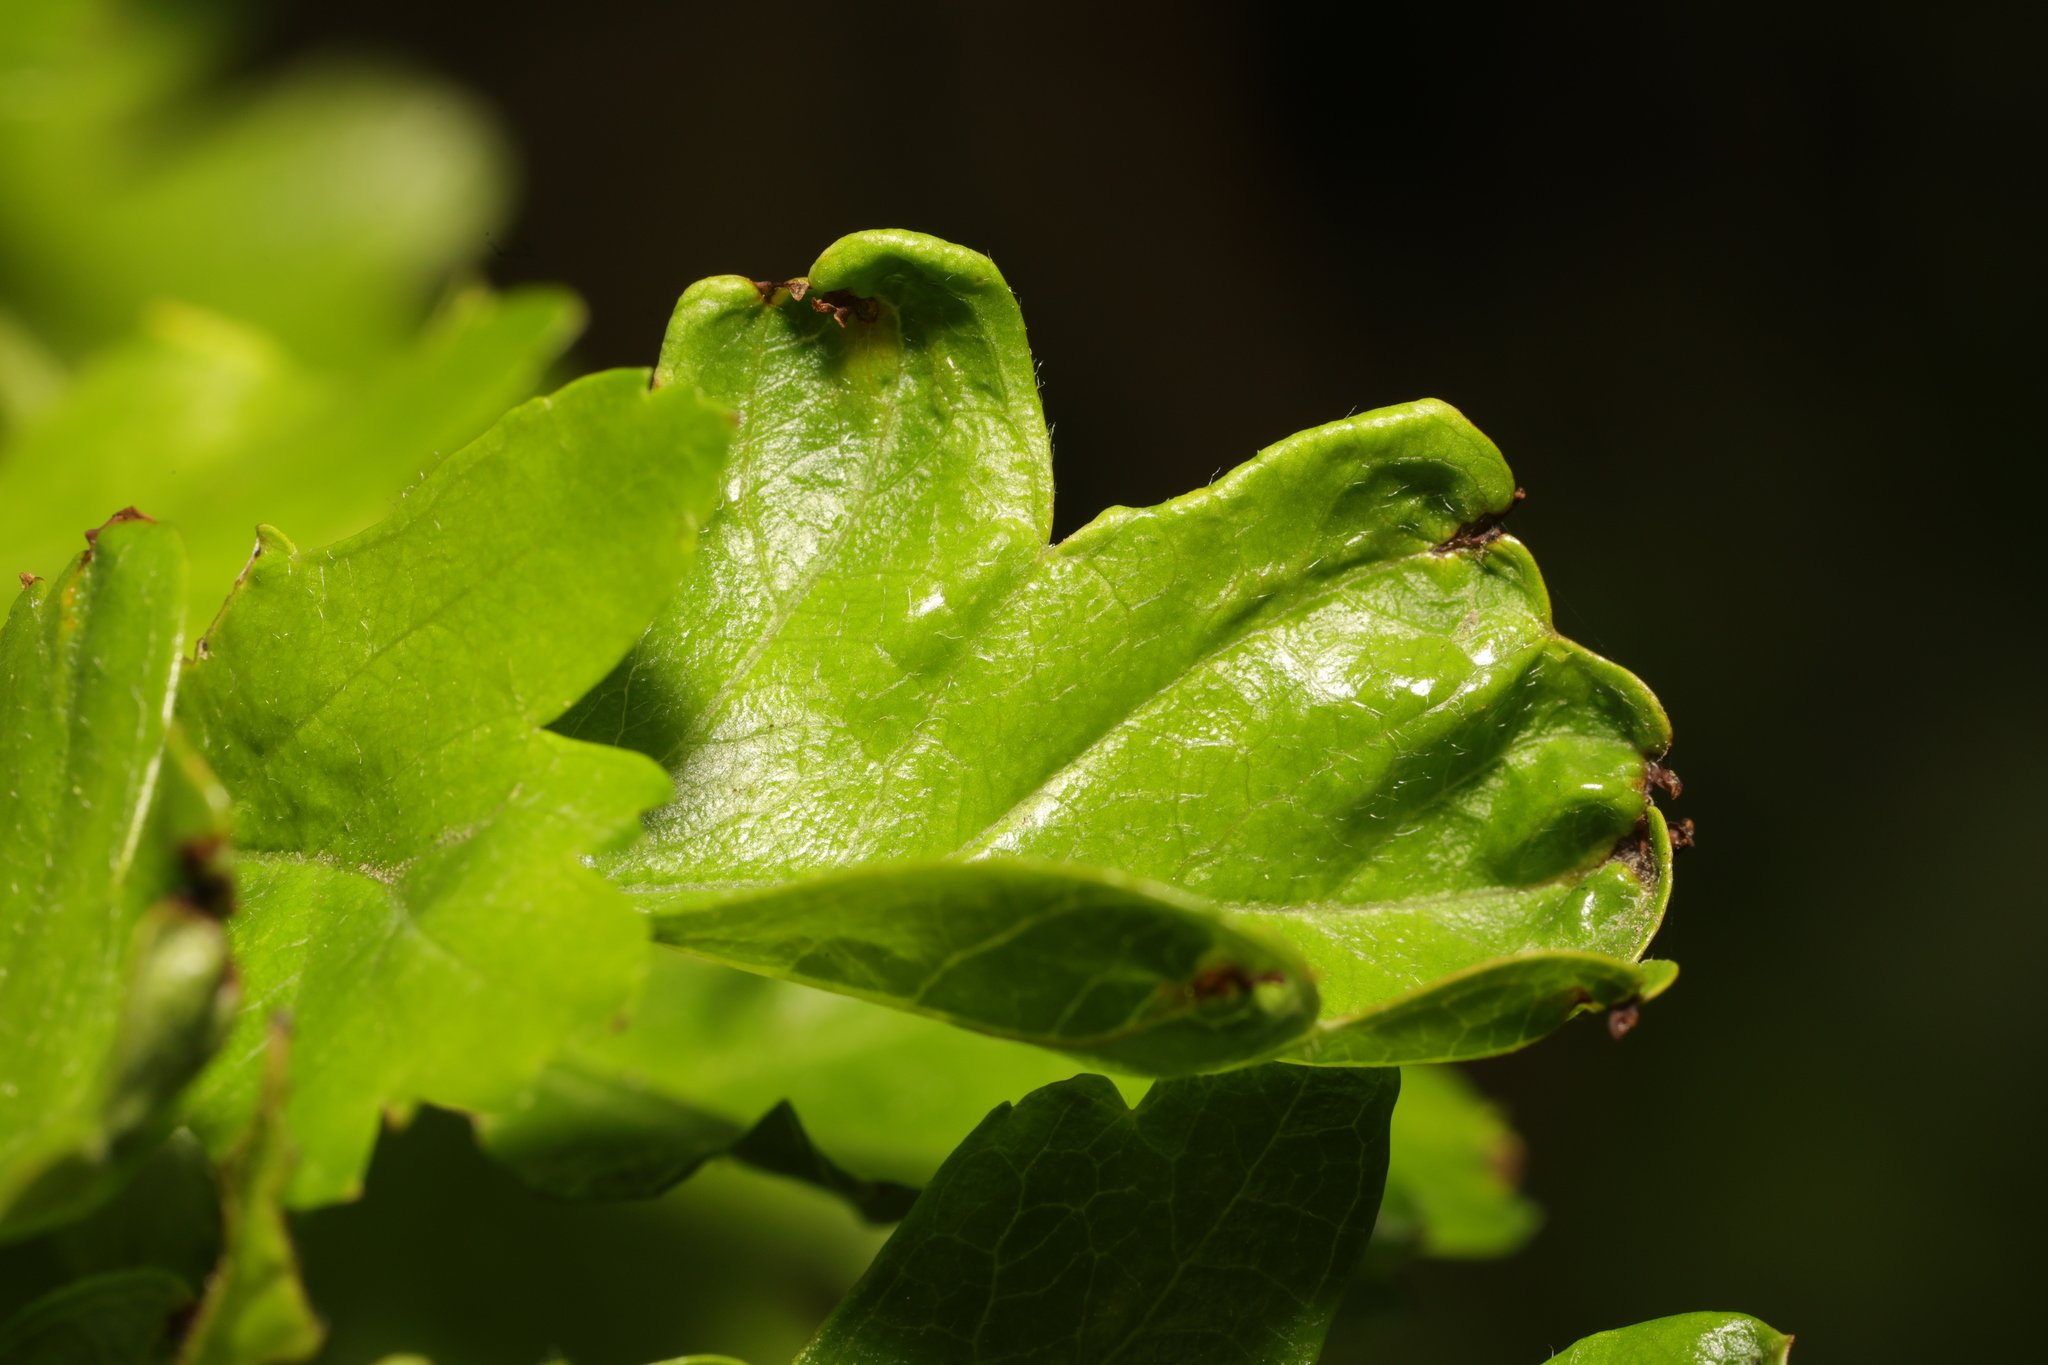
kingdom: Animalia
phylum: Arthropoda
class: Arachnida
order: Trombidiformes
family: Eriophyidae
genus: Phyllocoptes
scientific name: Phyllocoptes goniothorax
